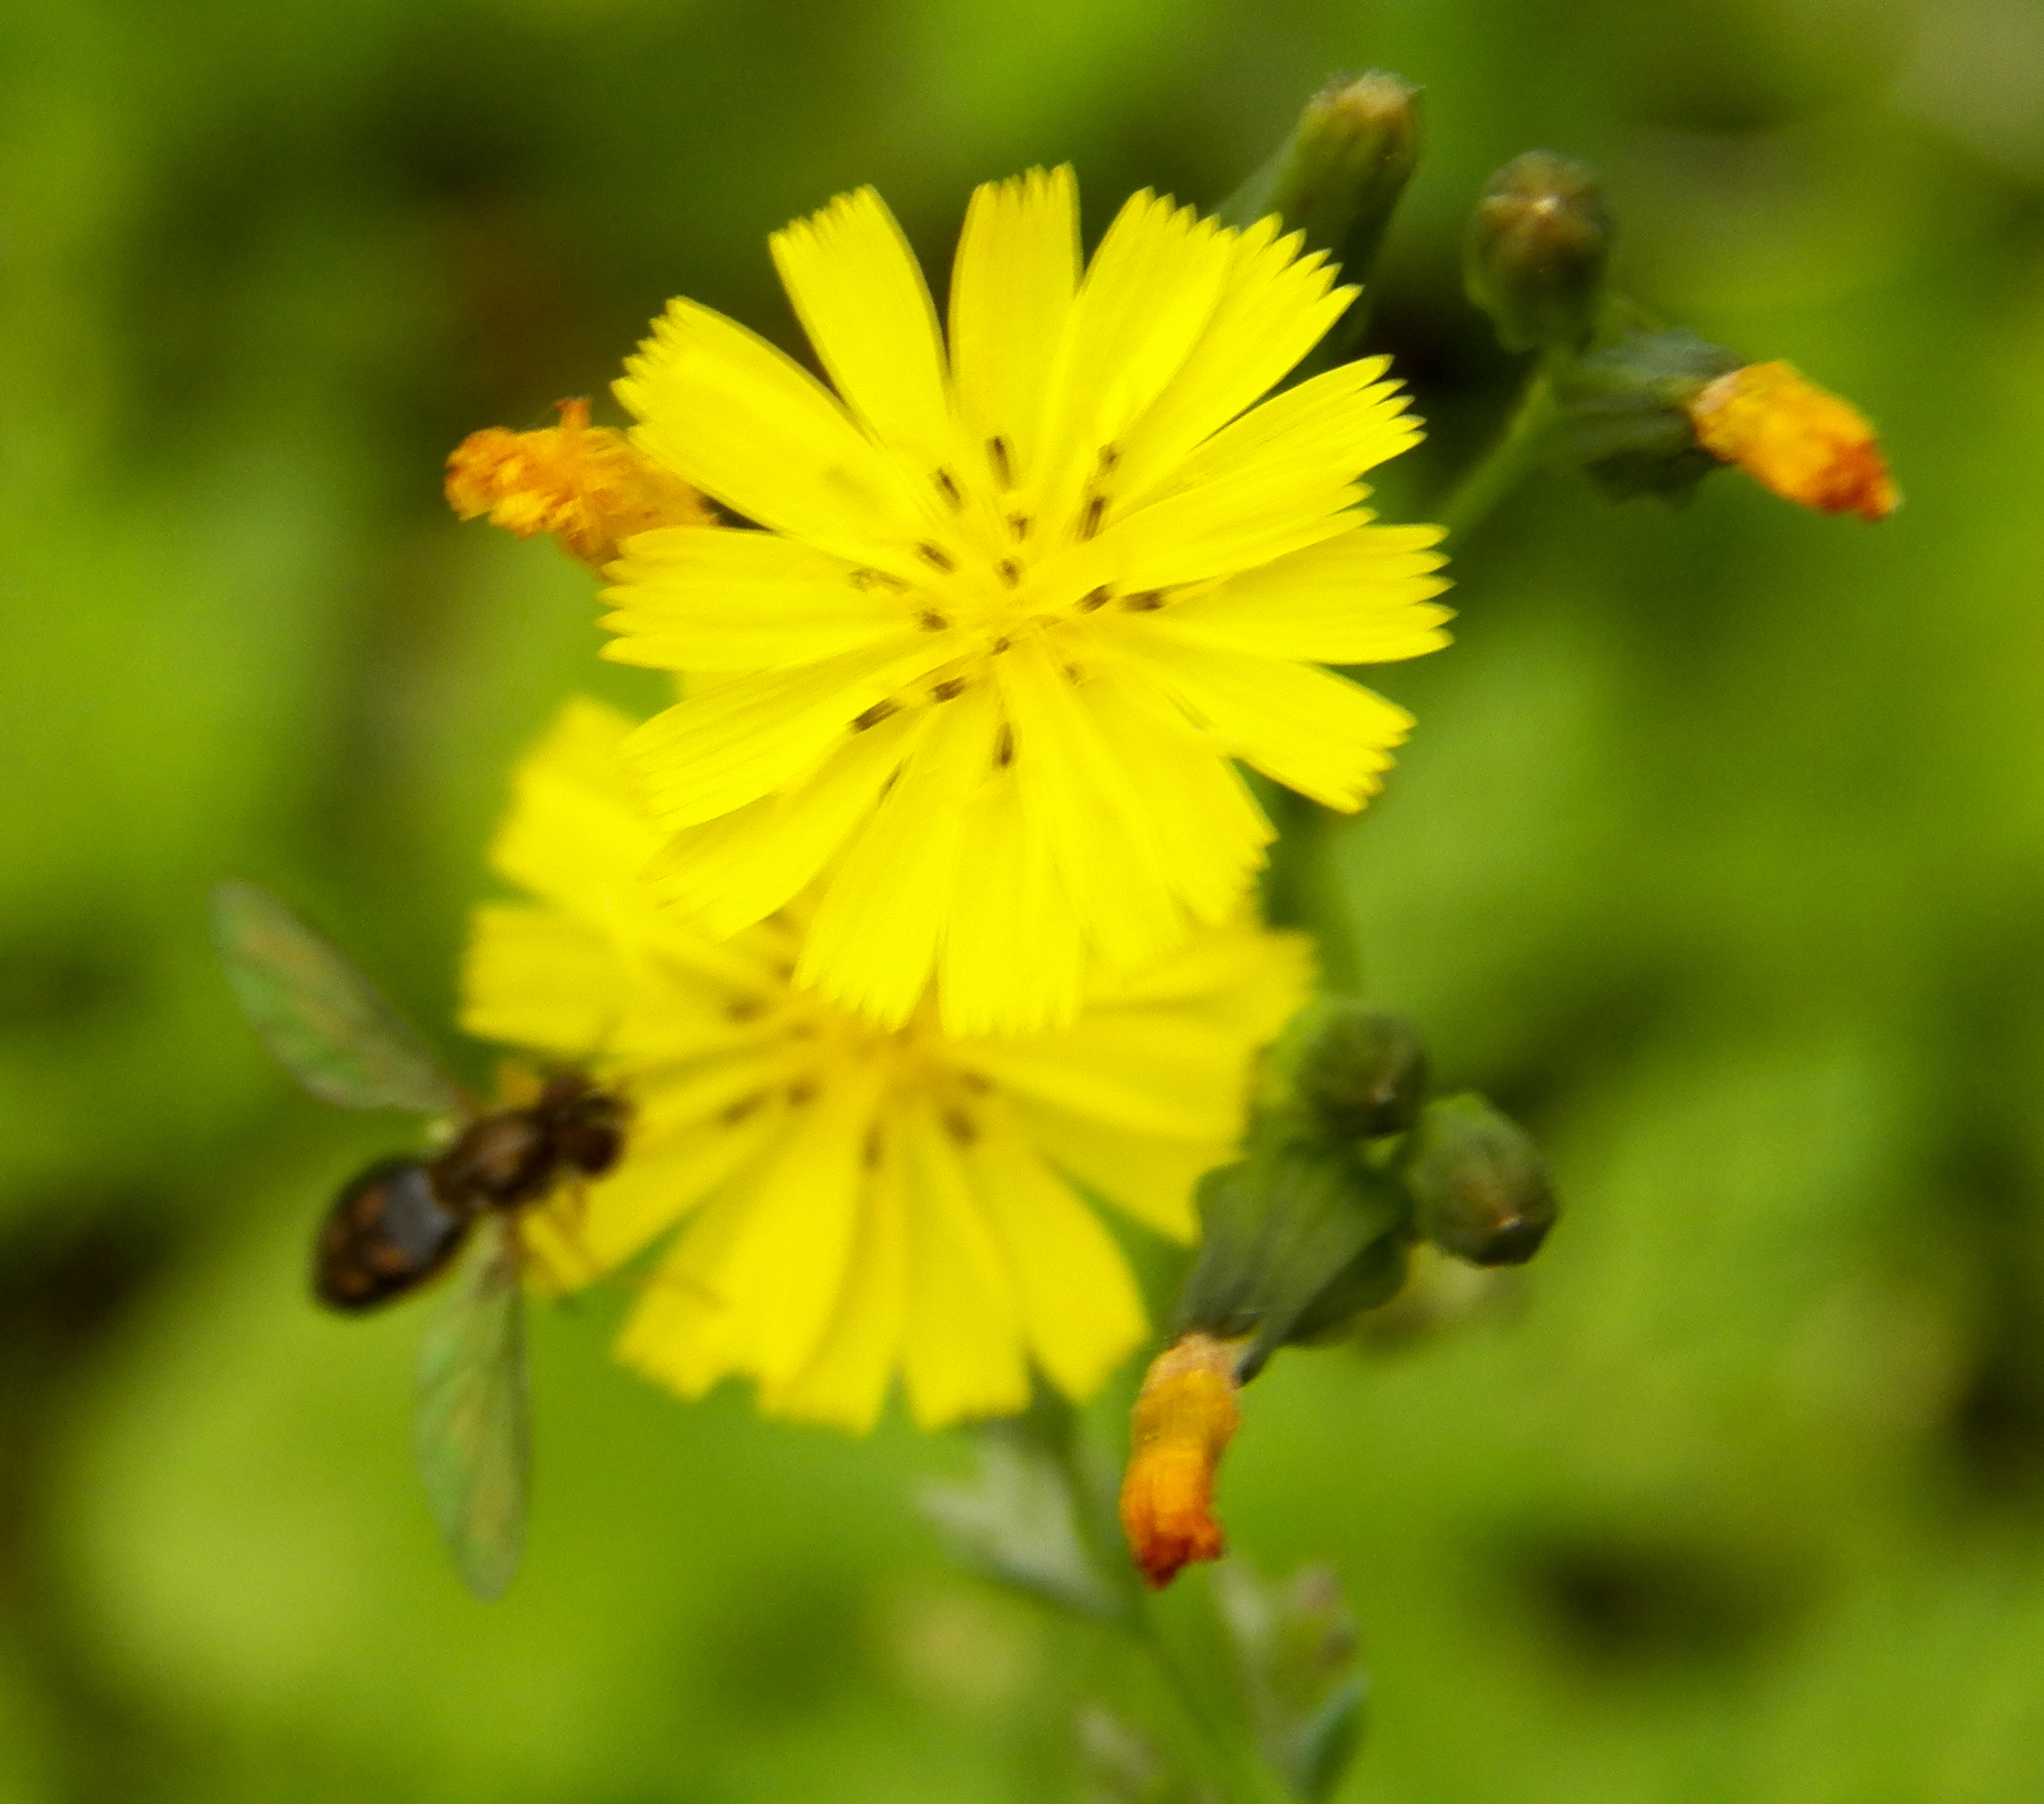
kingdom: Animalia
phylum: Arthropoda
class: Insecta
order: Diptera
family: Syrphidae
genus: Toxomerus
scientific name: Toxomerus marginatus
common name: Syrphid fly
